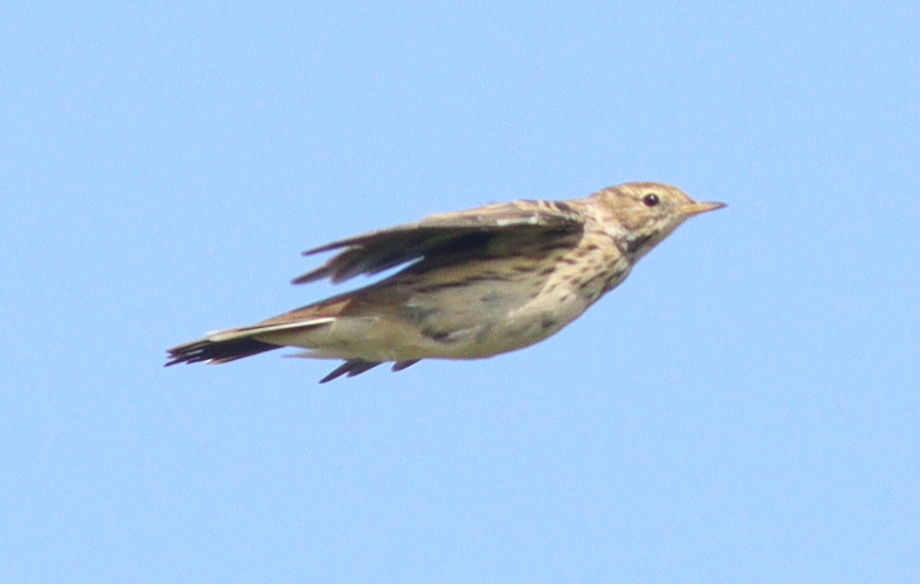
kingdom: Animalia
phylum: Chordata
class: Aves
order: Passeriformes
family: Motacillidae
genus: Anthus
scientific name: Anthus pratensis
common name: Meadow pipit
